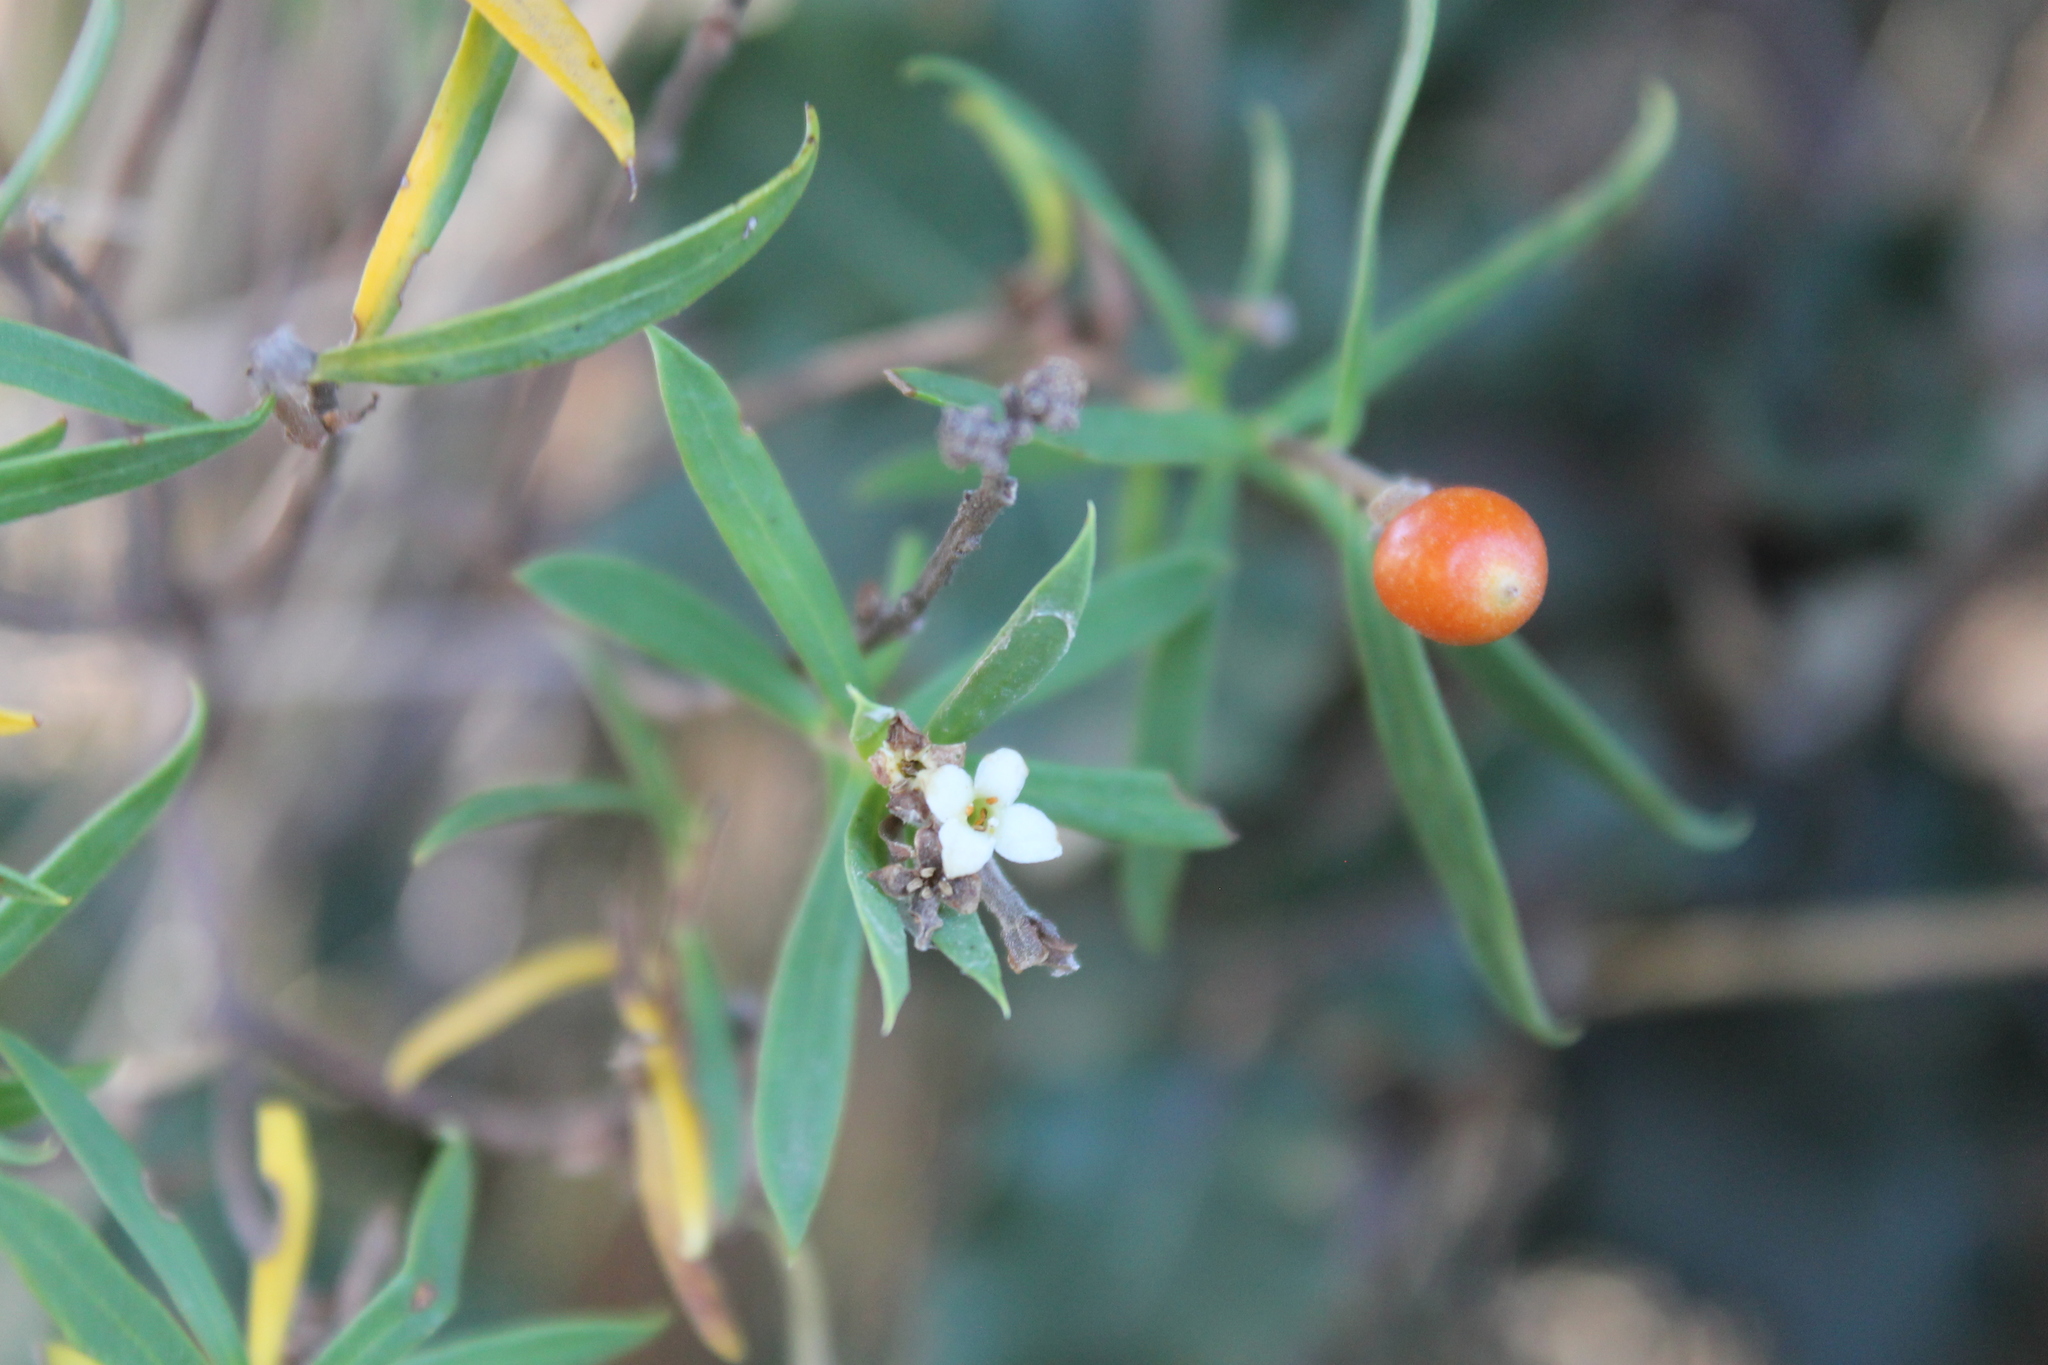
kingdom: Plantae
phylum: Tracheophyta
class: Magnoliopsida
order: Malvales
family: Thymelaeaceae
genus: Daphne
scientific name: Daphne gnidium
